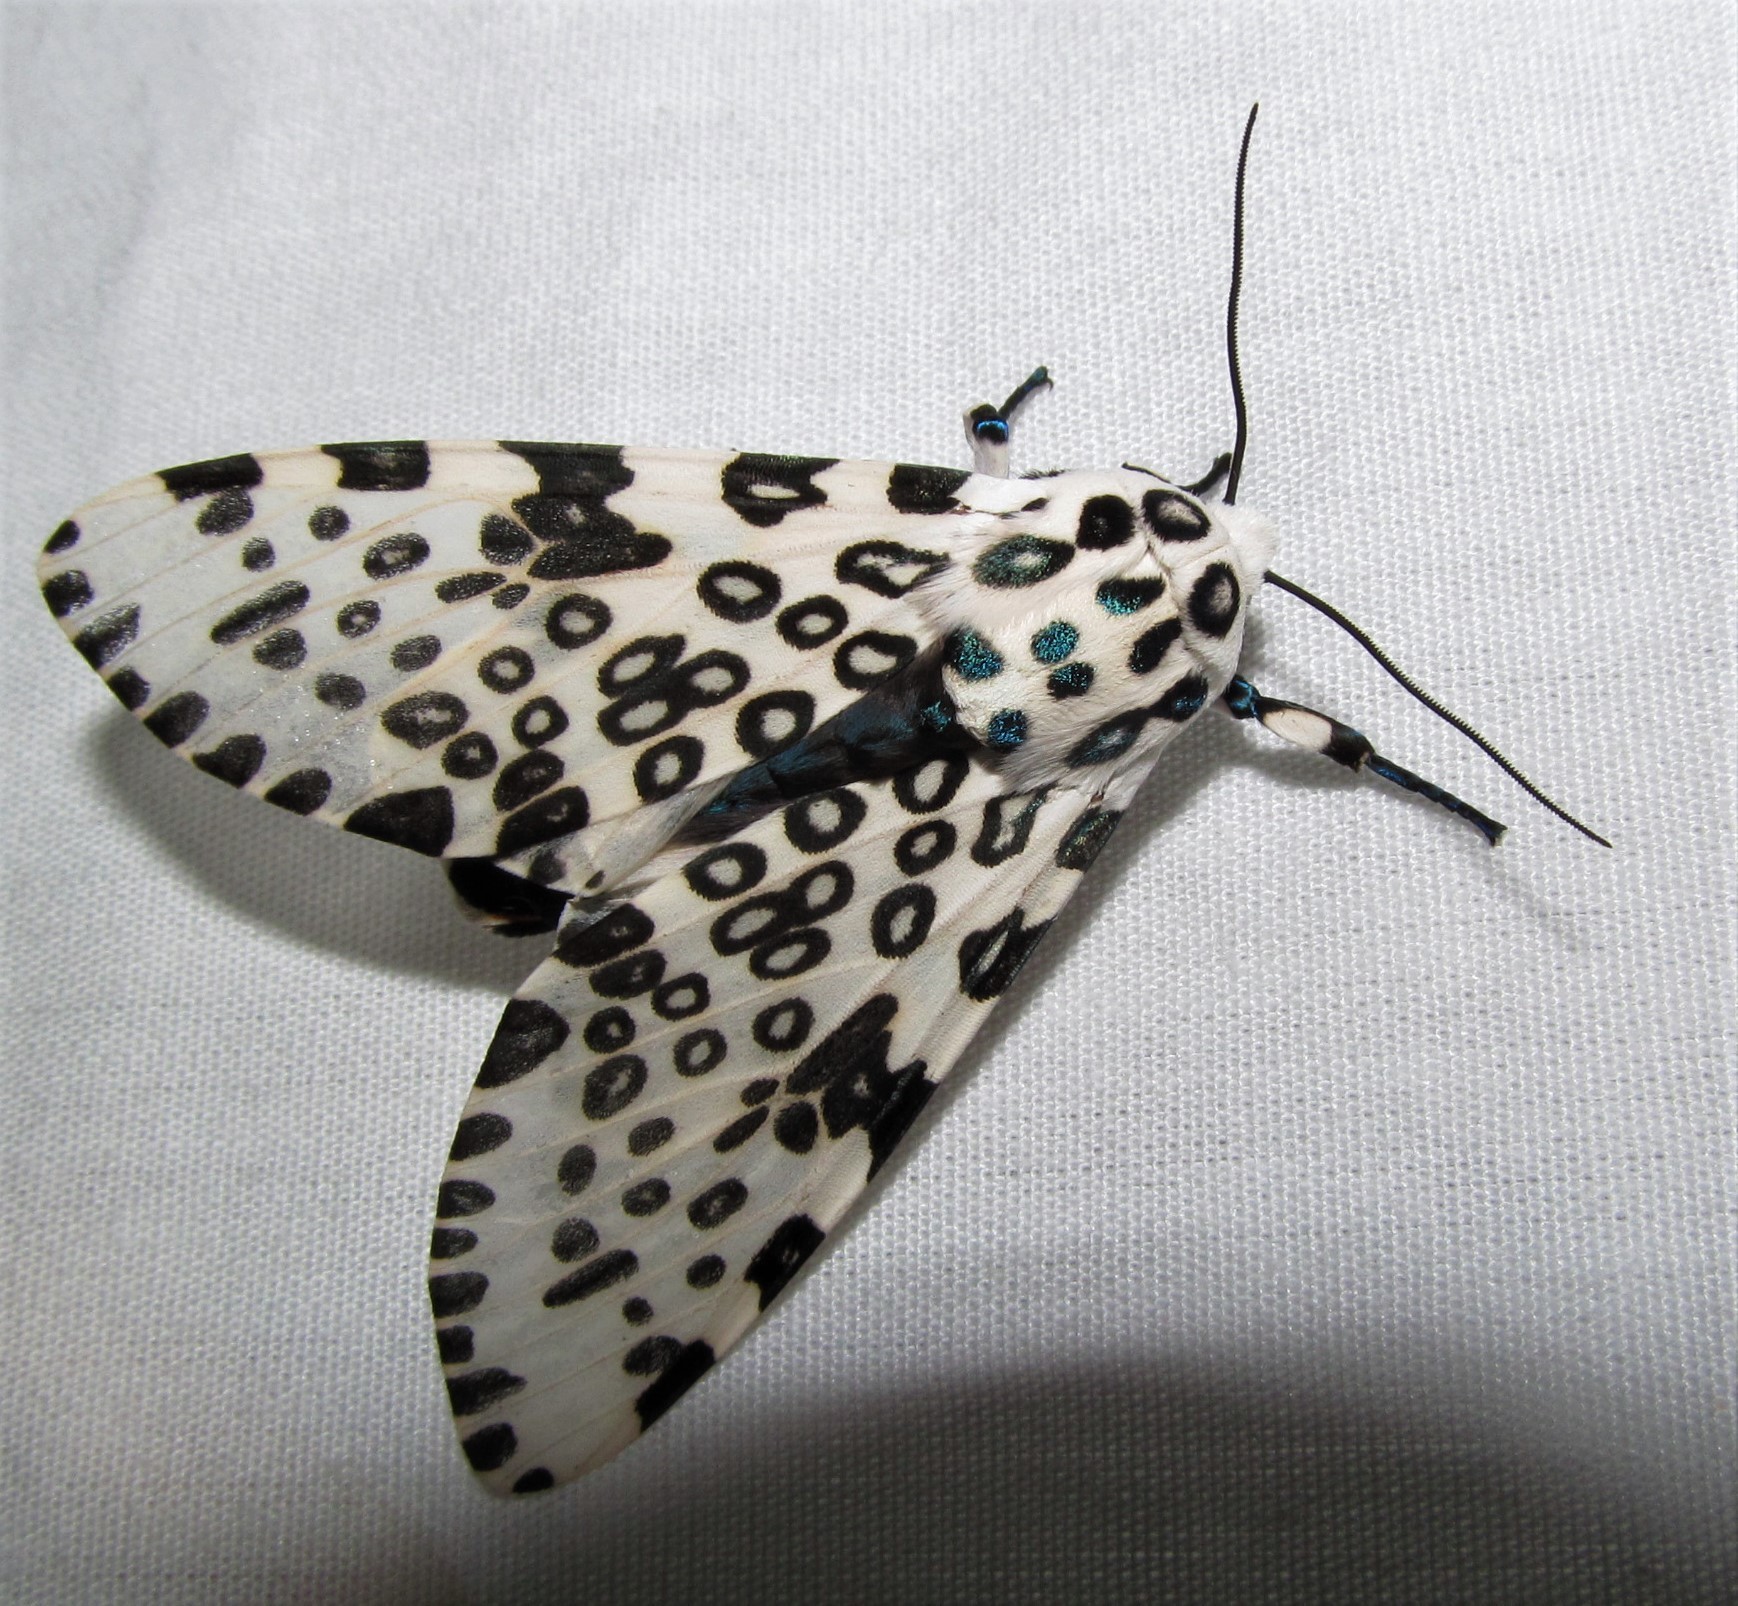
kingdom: Animalia
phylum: Arthropoda
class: Insecta
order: Lepidoptera
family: Erebidae
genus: Hypercompe
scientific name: Hypercompe scribonia
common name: Giant leopard moth
